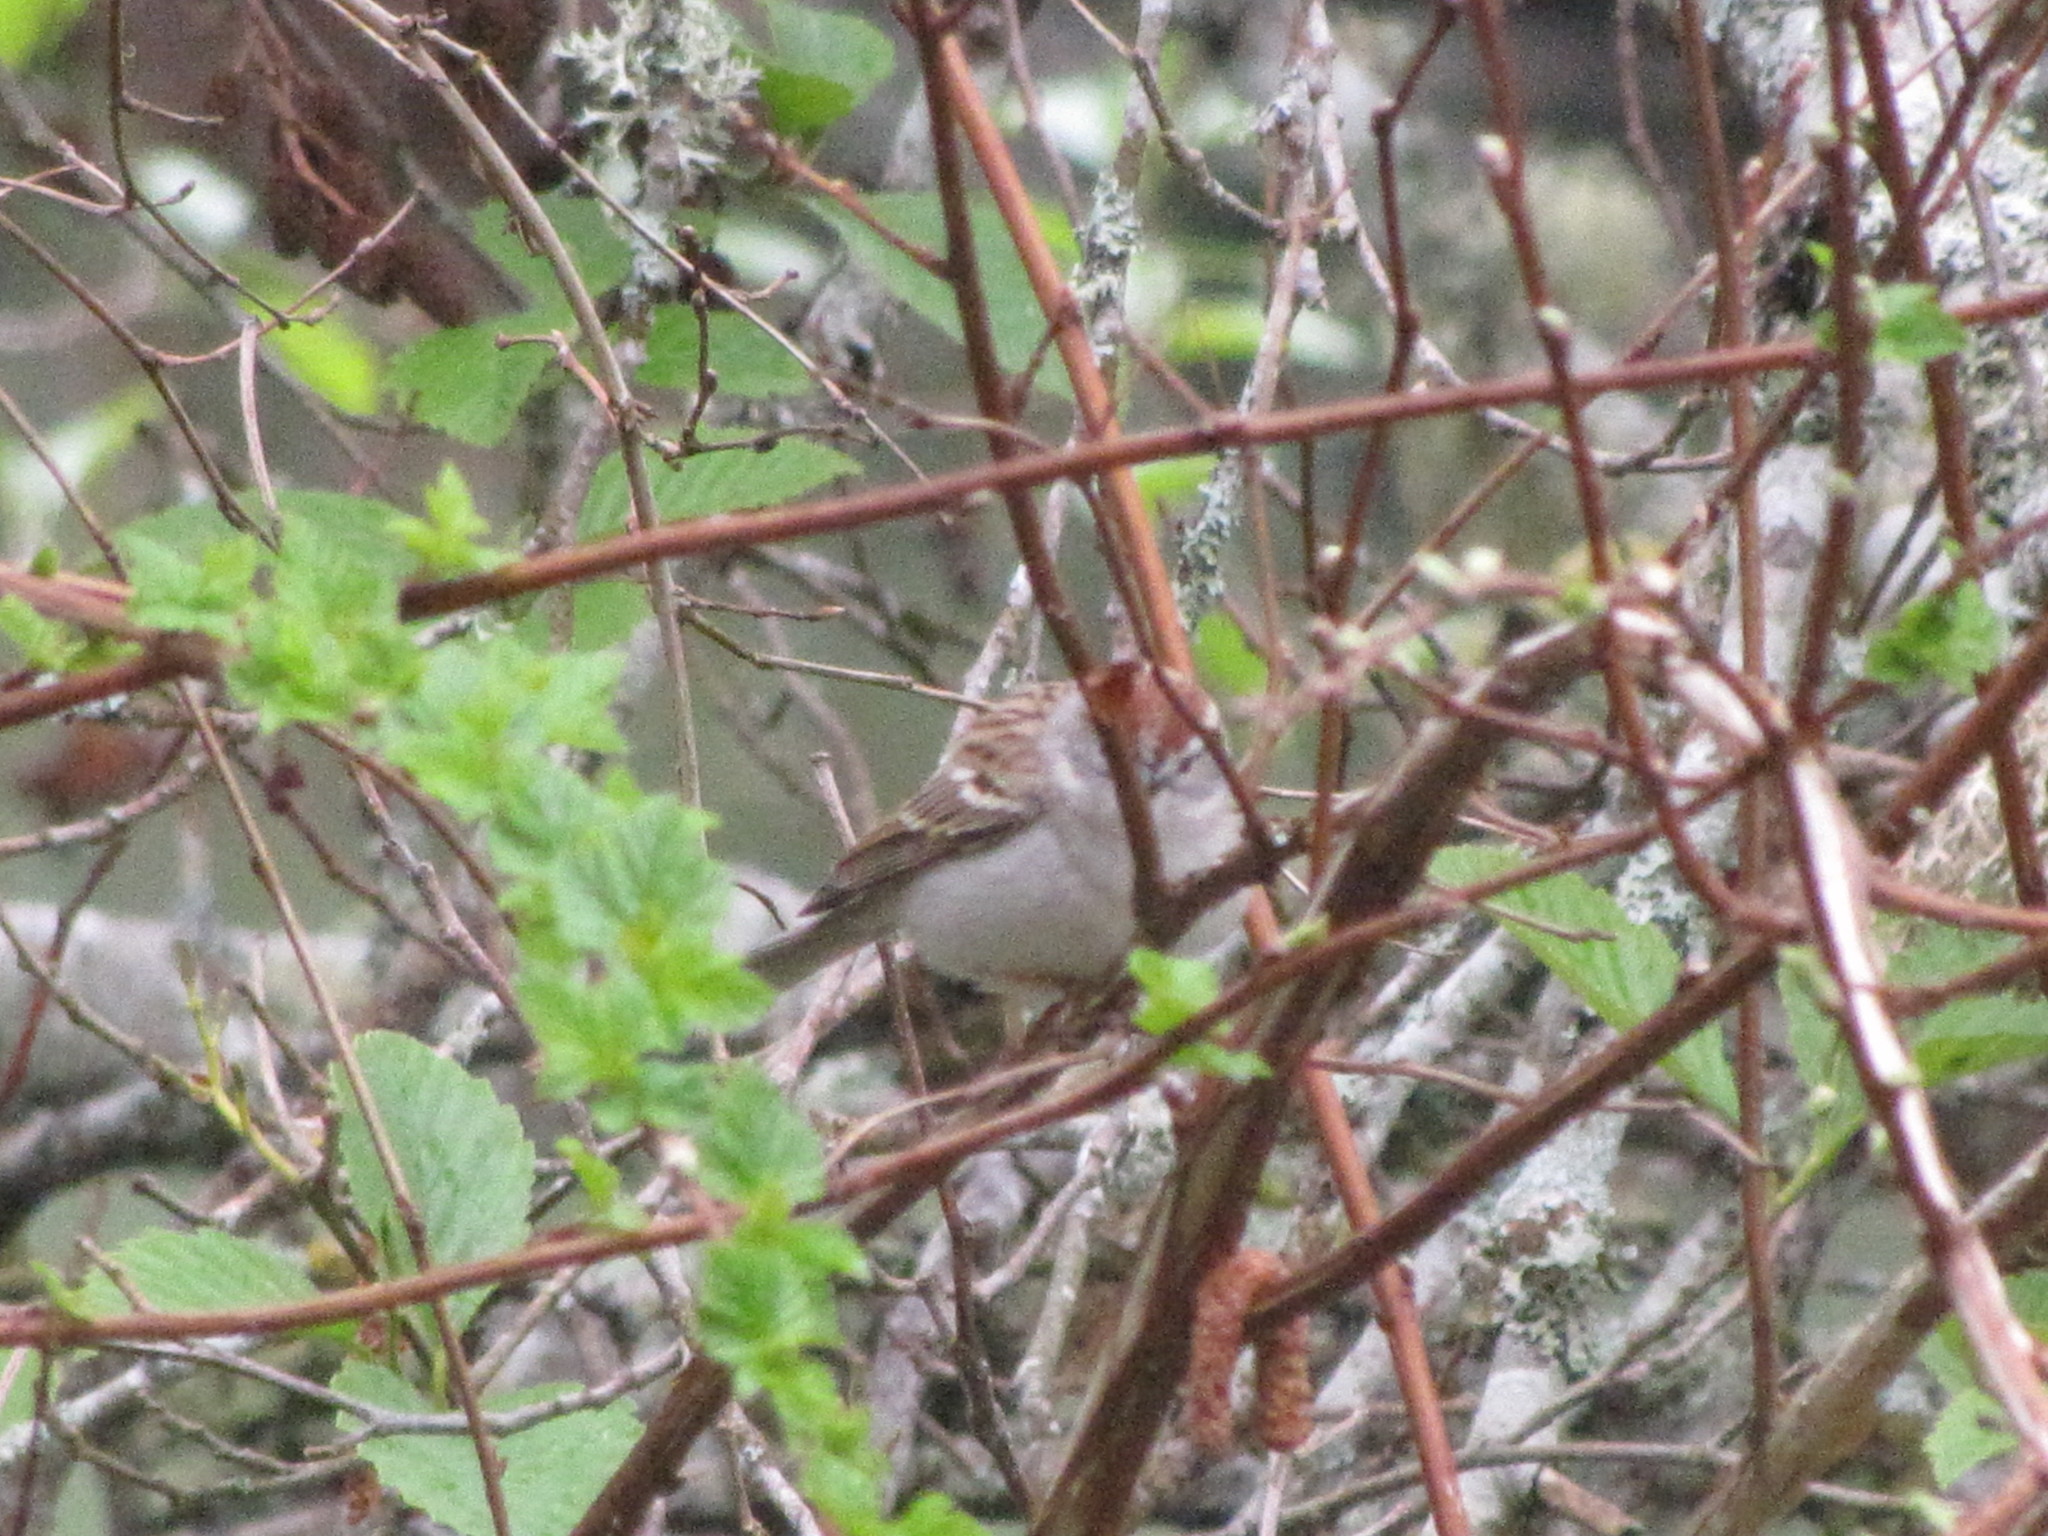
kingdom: Animalia
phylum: Chordata
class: Aves
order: Passeriformes
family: Passerellidae
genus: Spizella
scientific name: Spizella passerina
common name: Chipping sparrow
